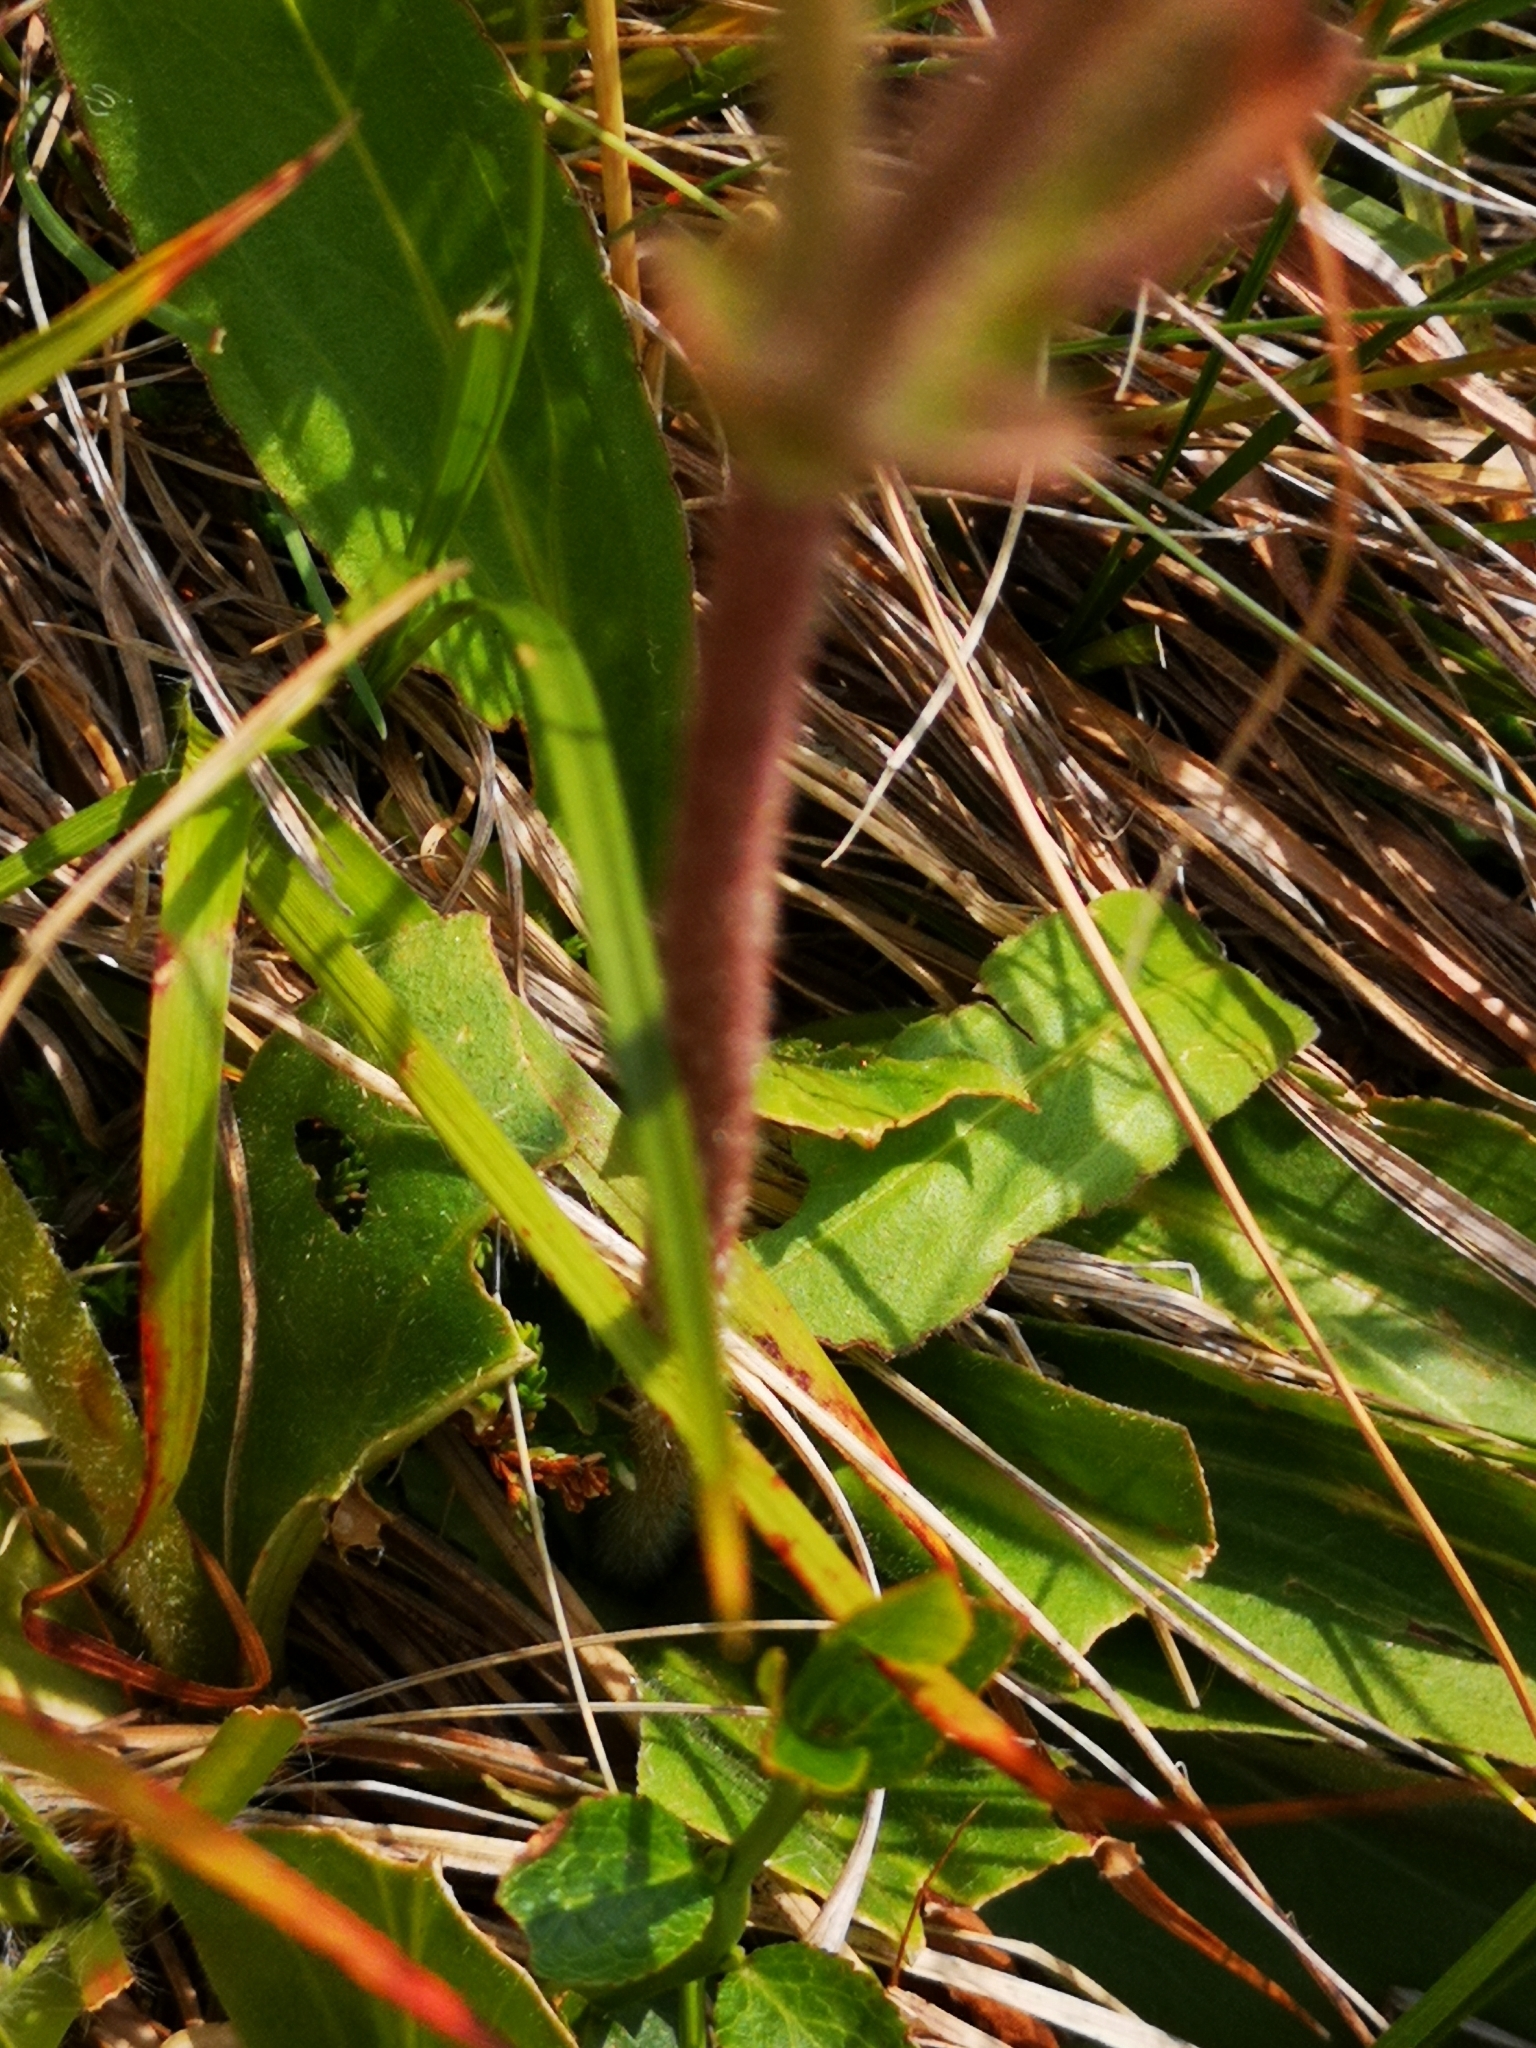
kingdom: Plantae
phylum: Tracheophyta
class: Magnoliopsida
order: Asterales
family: Asteraceae
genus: Arnica
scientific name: Arnica montana
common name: Leopard's bane
